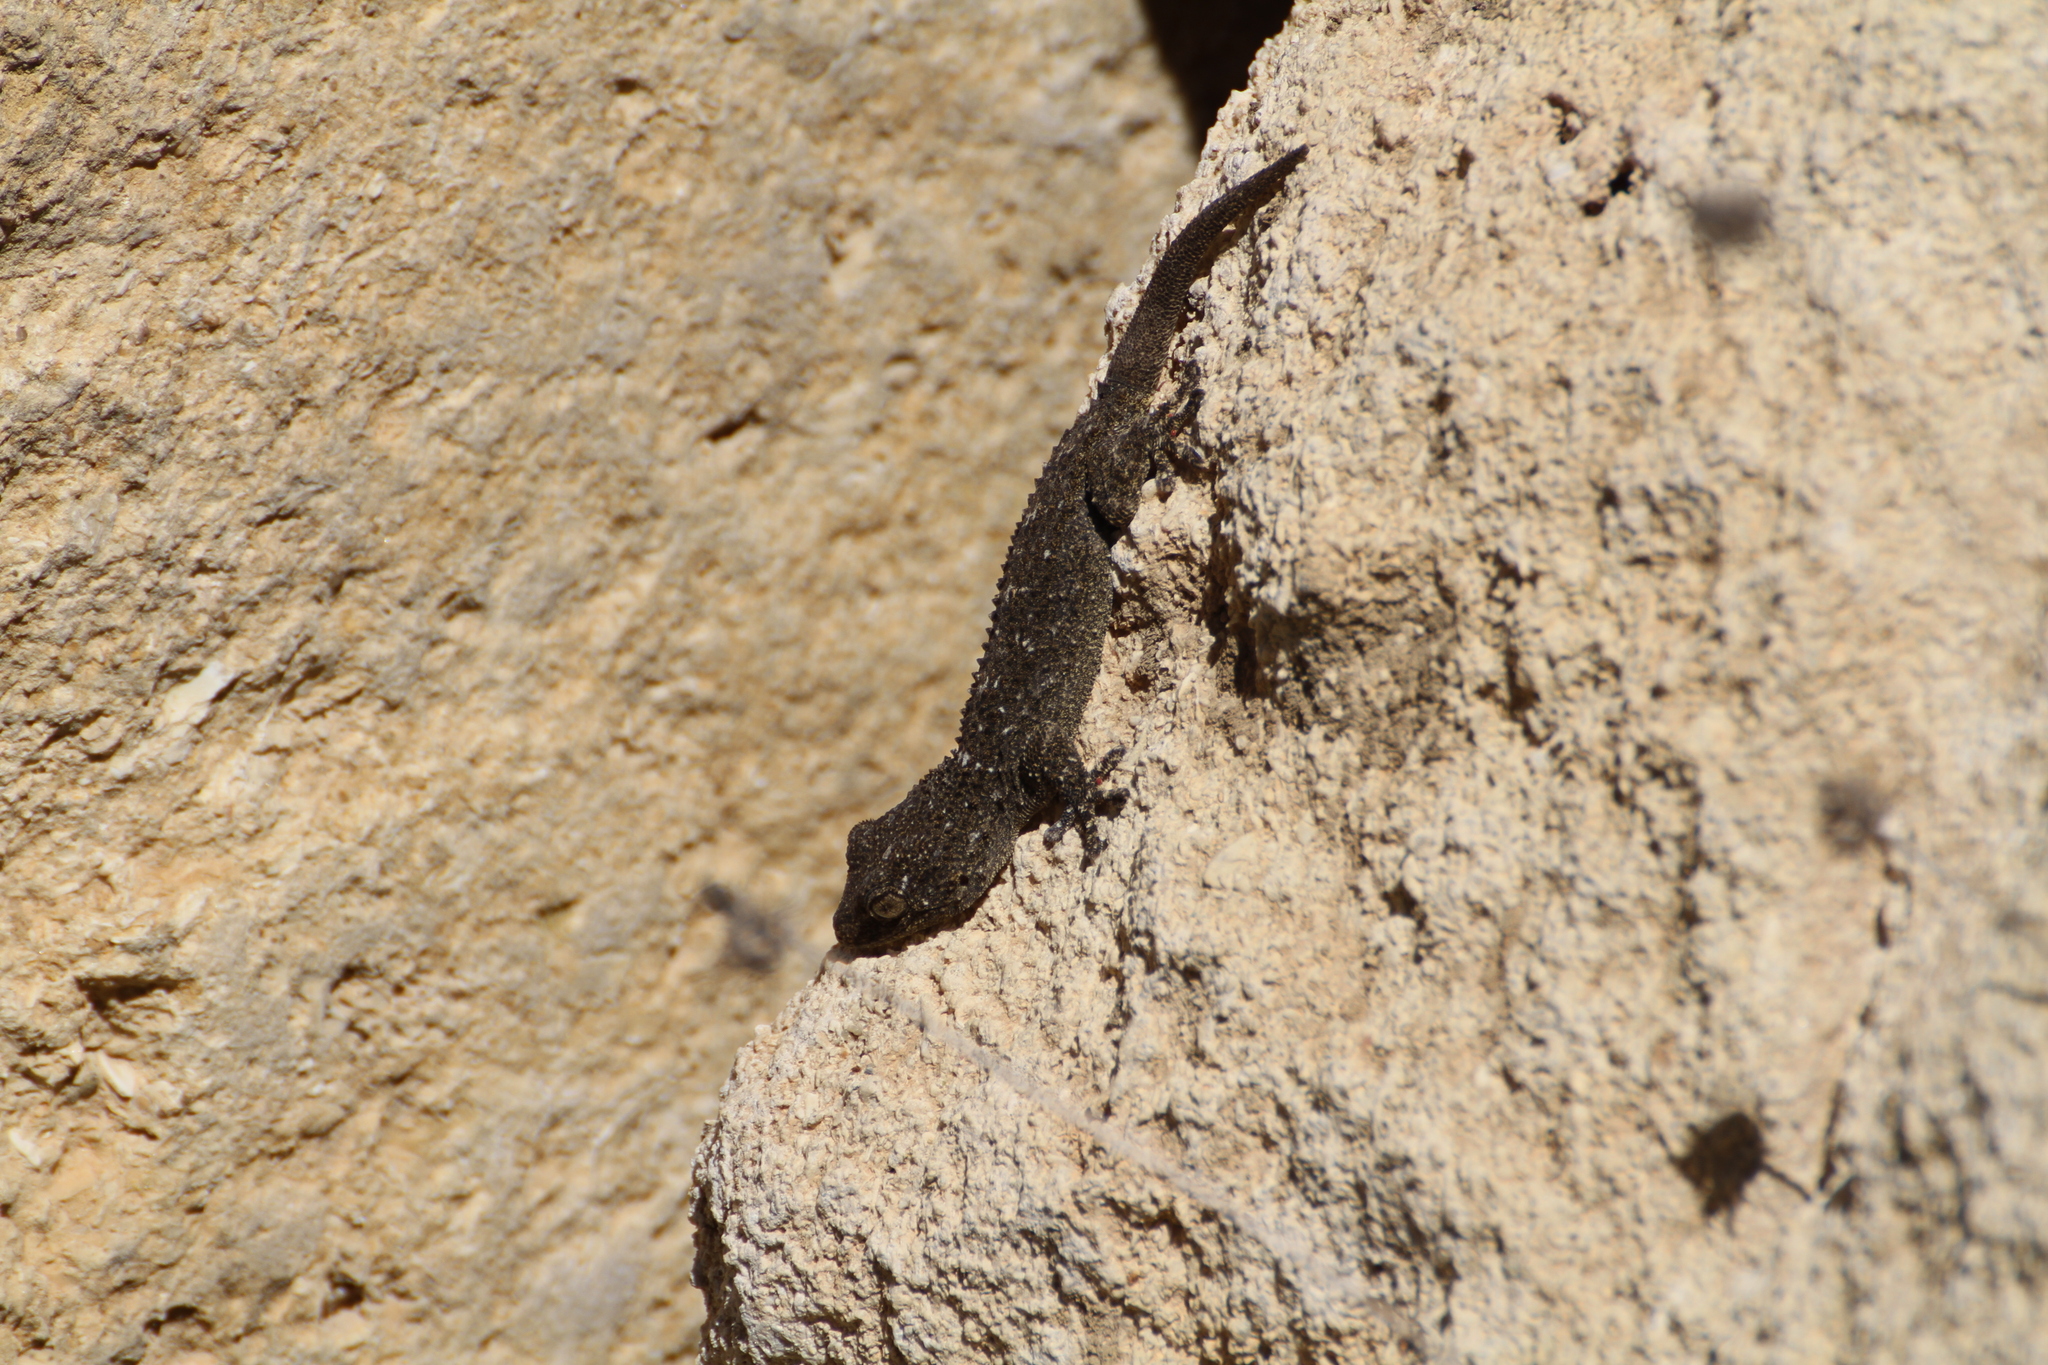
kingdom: Animalia
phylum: Chordata
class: Squamata
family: Phyllodactylidae
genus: Tarentola
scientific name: Tarentola mauritanica
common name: Moorish gecko
